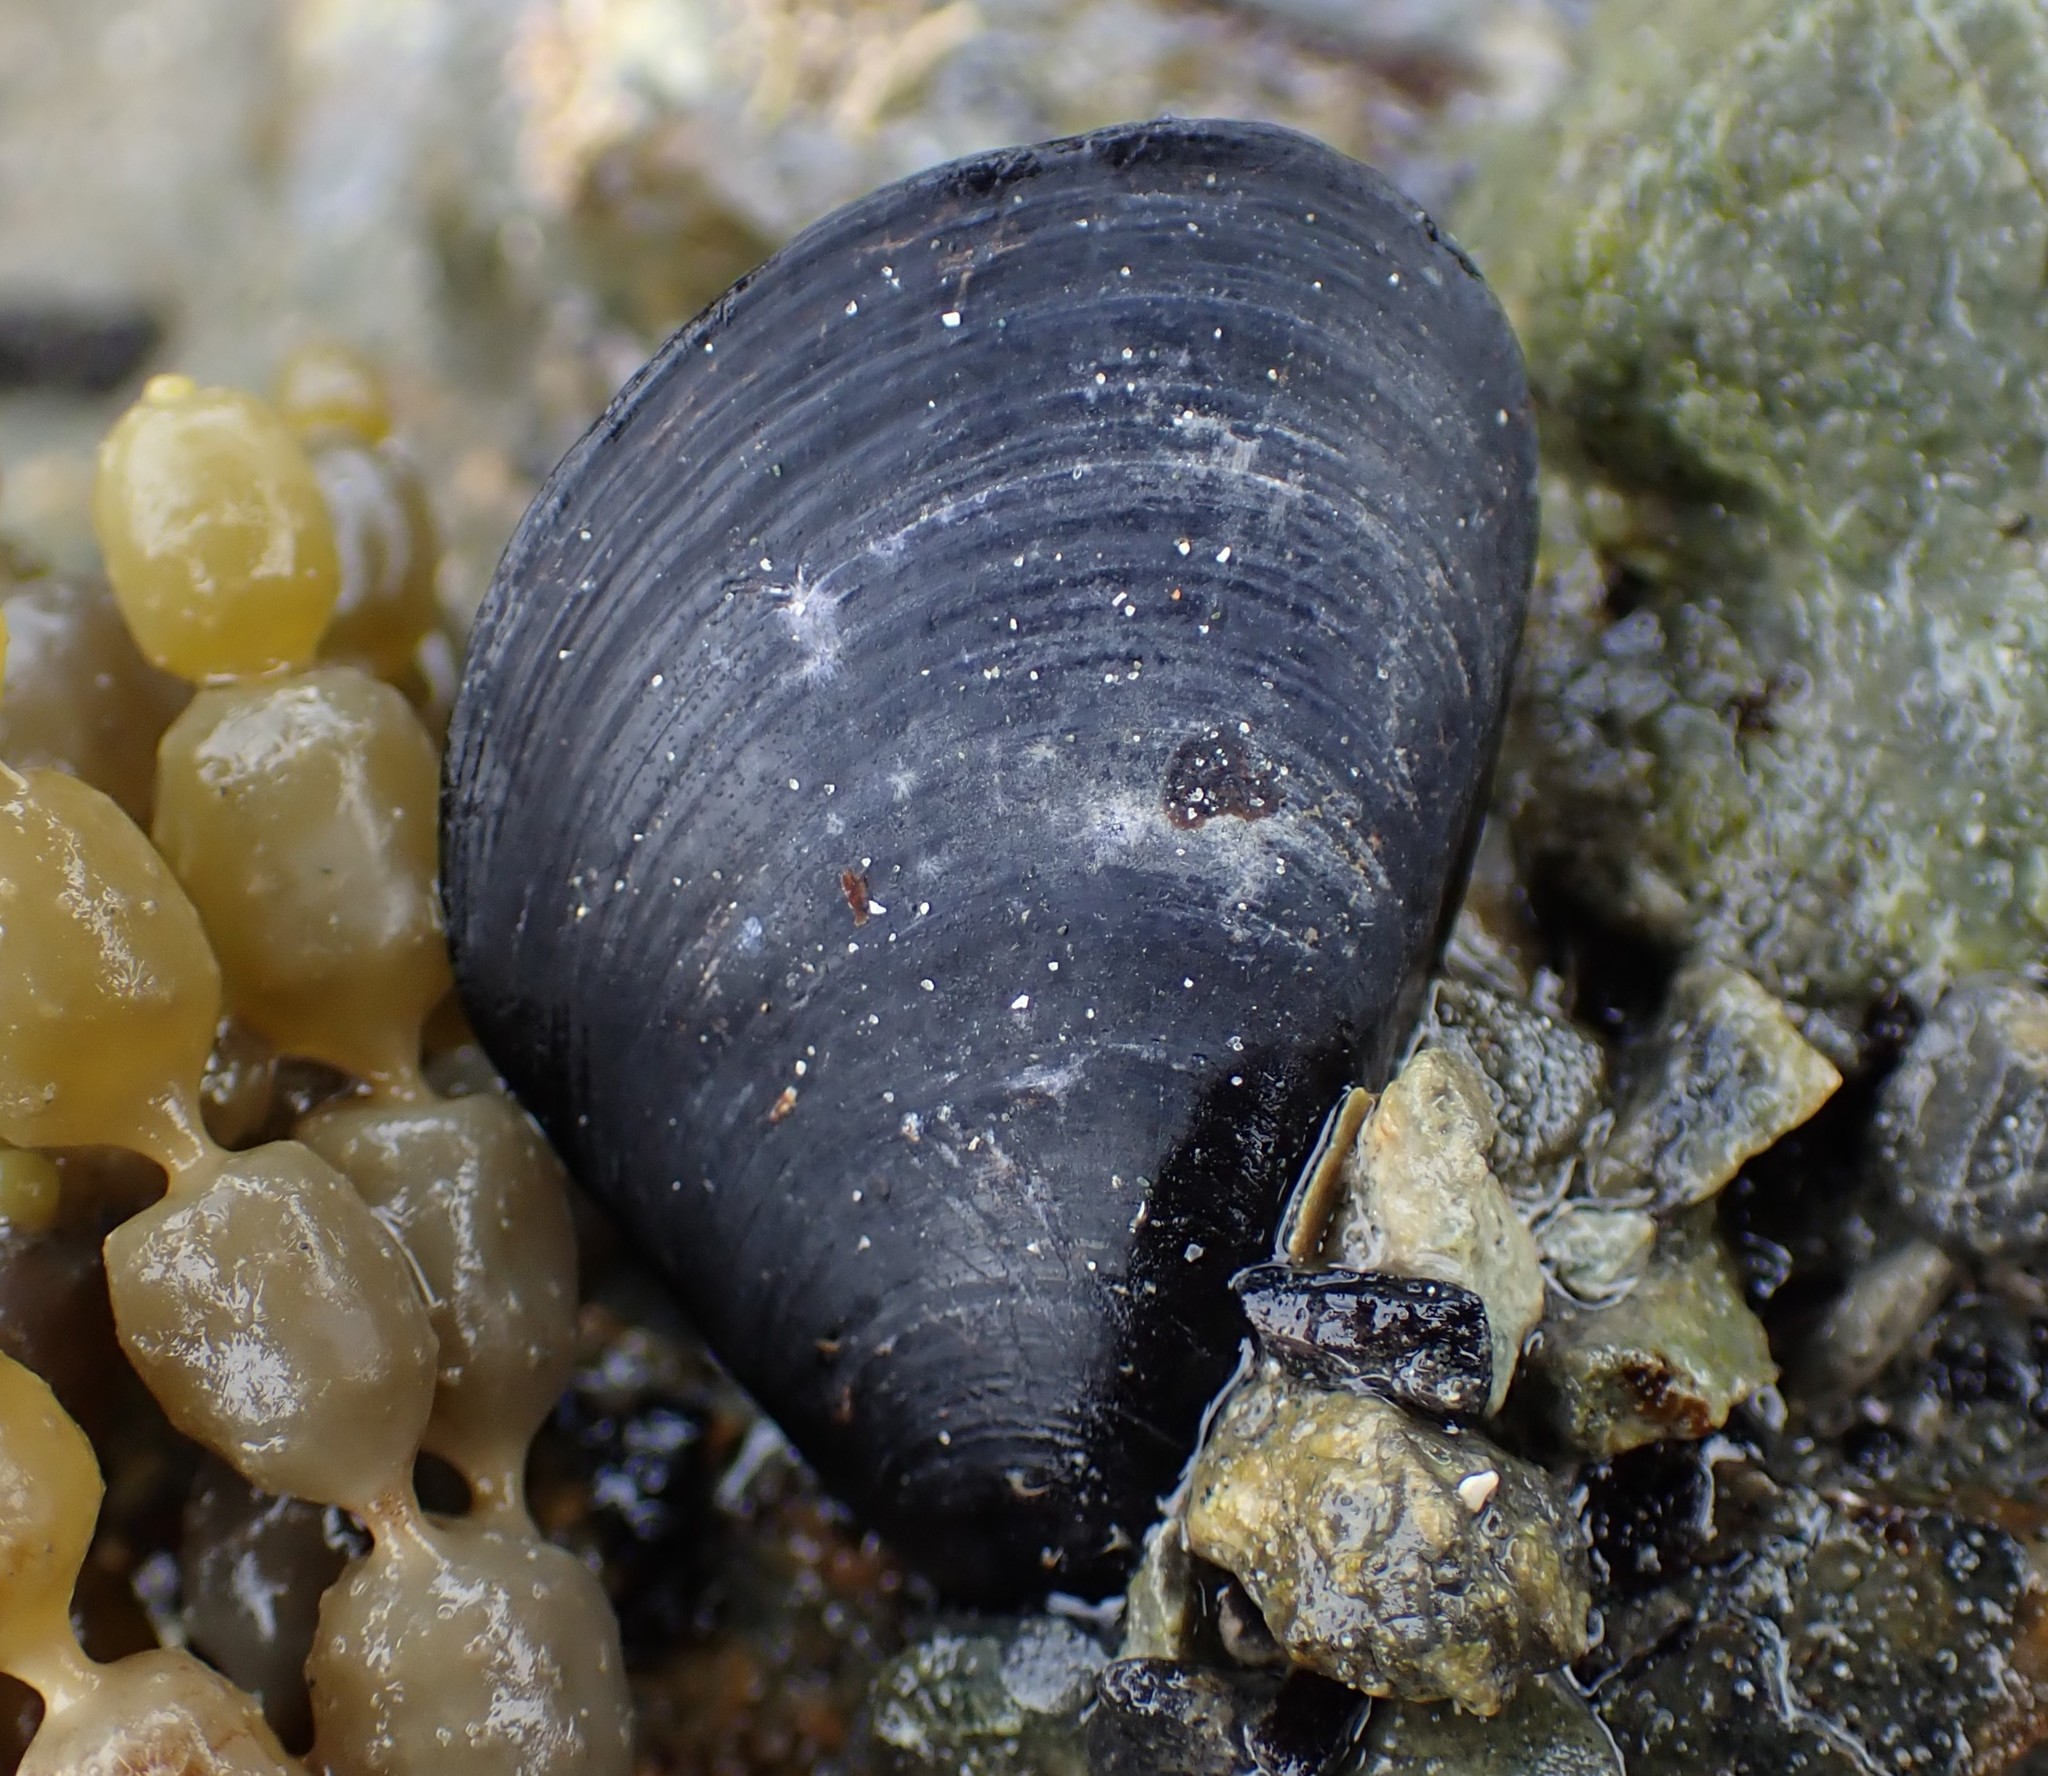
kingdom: Animalia
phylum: Mollusca
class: Bivalvia
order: Mytilida
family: Mytilidae
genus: Mytilus
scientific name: Mytilus planulatus
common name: Australian mussel
